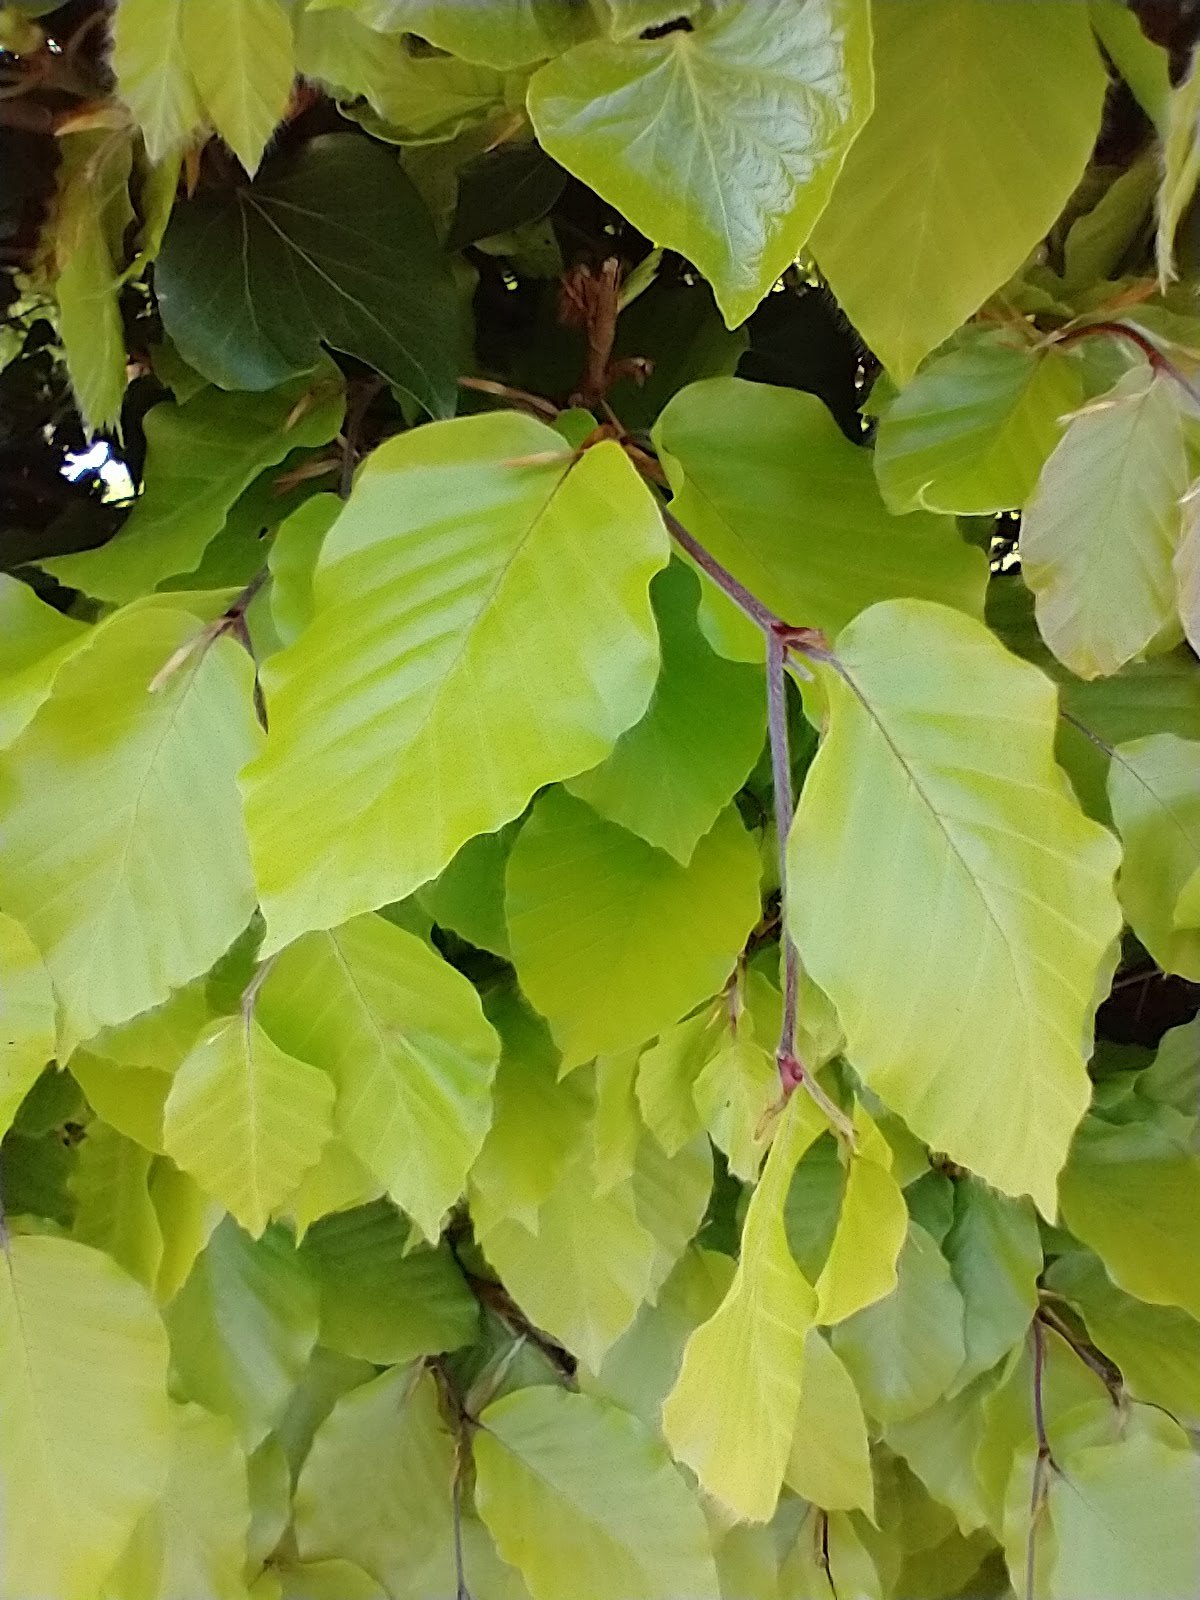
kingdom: Plantae
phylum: Tracheophyta
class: Magnoliopsida
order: Fagales
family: Fagaceae
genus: Fagus
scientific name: Fagus sylvatica
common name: Beech
